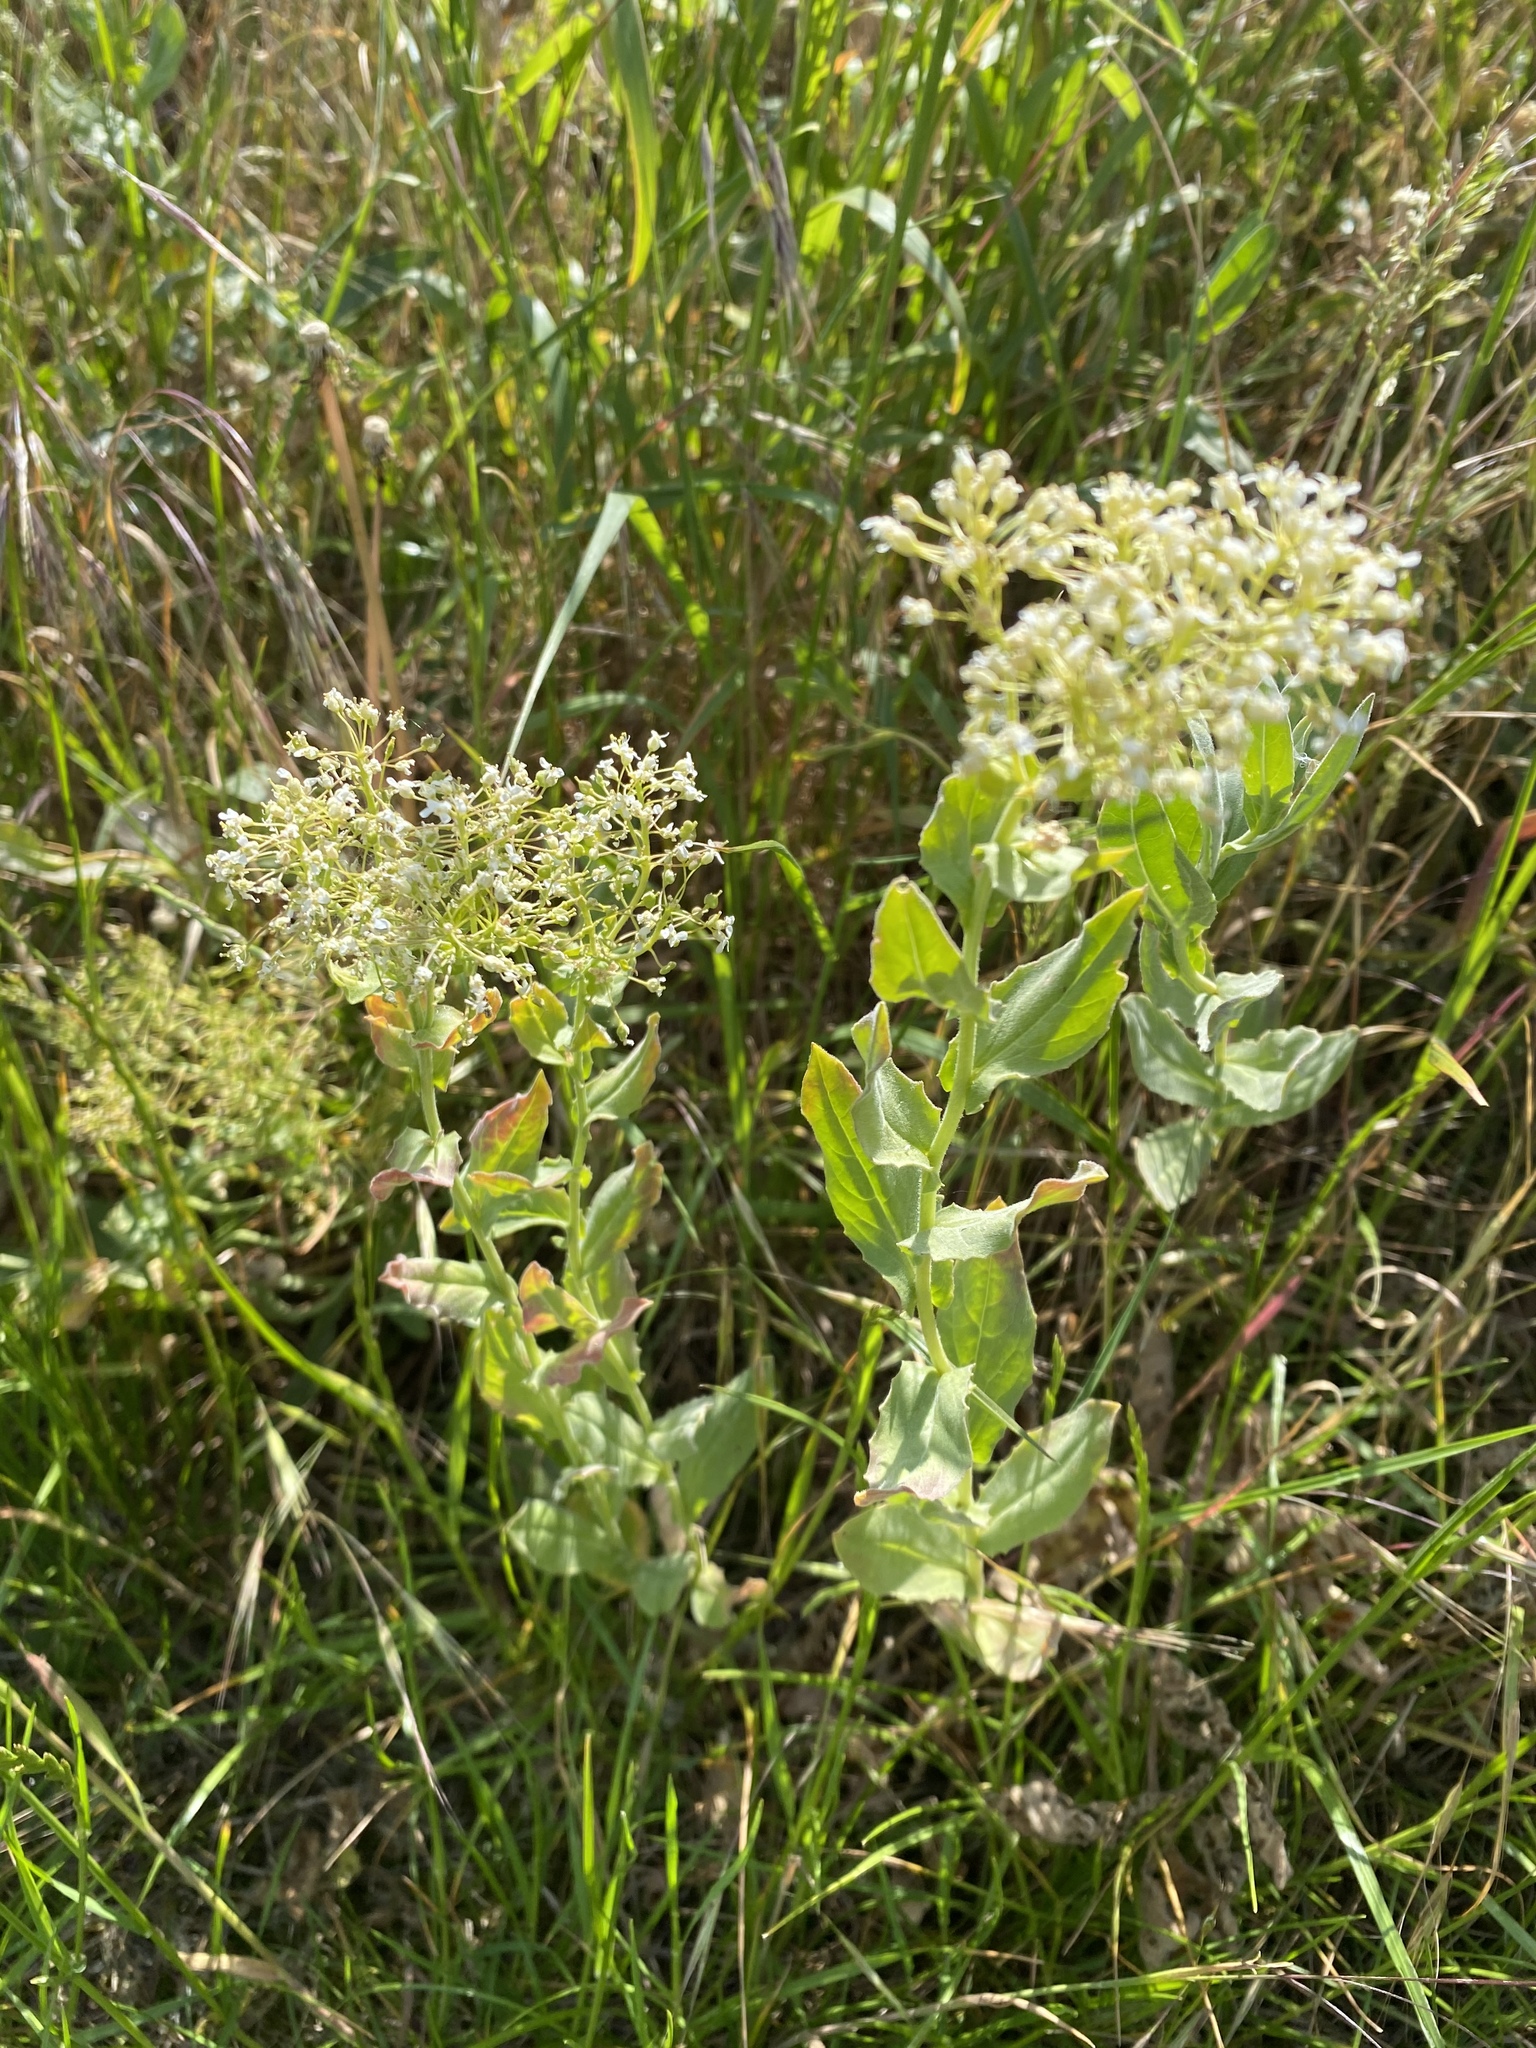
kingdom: Plantae
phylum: Tracheophyta
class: Magnoliopsida
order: Brassicales
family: Brassicaceae
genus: Lepidium
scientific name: Lepidium draba
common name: Hoary cress
